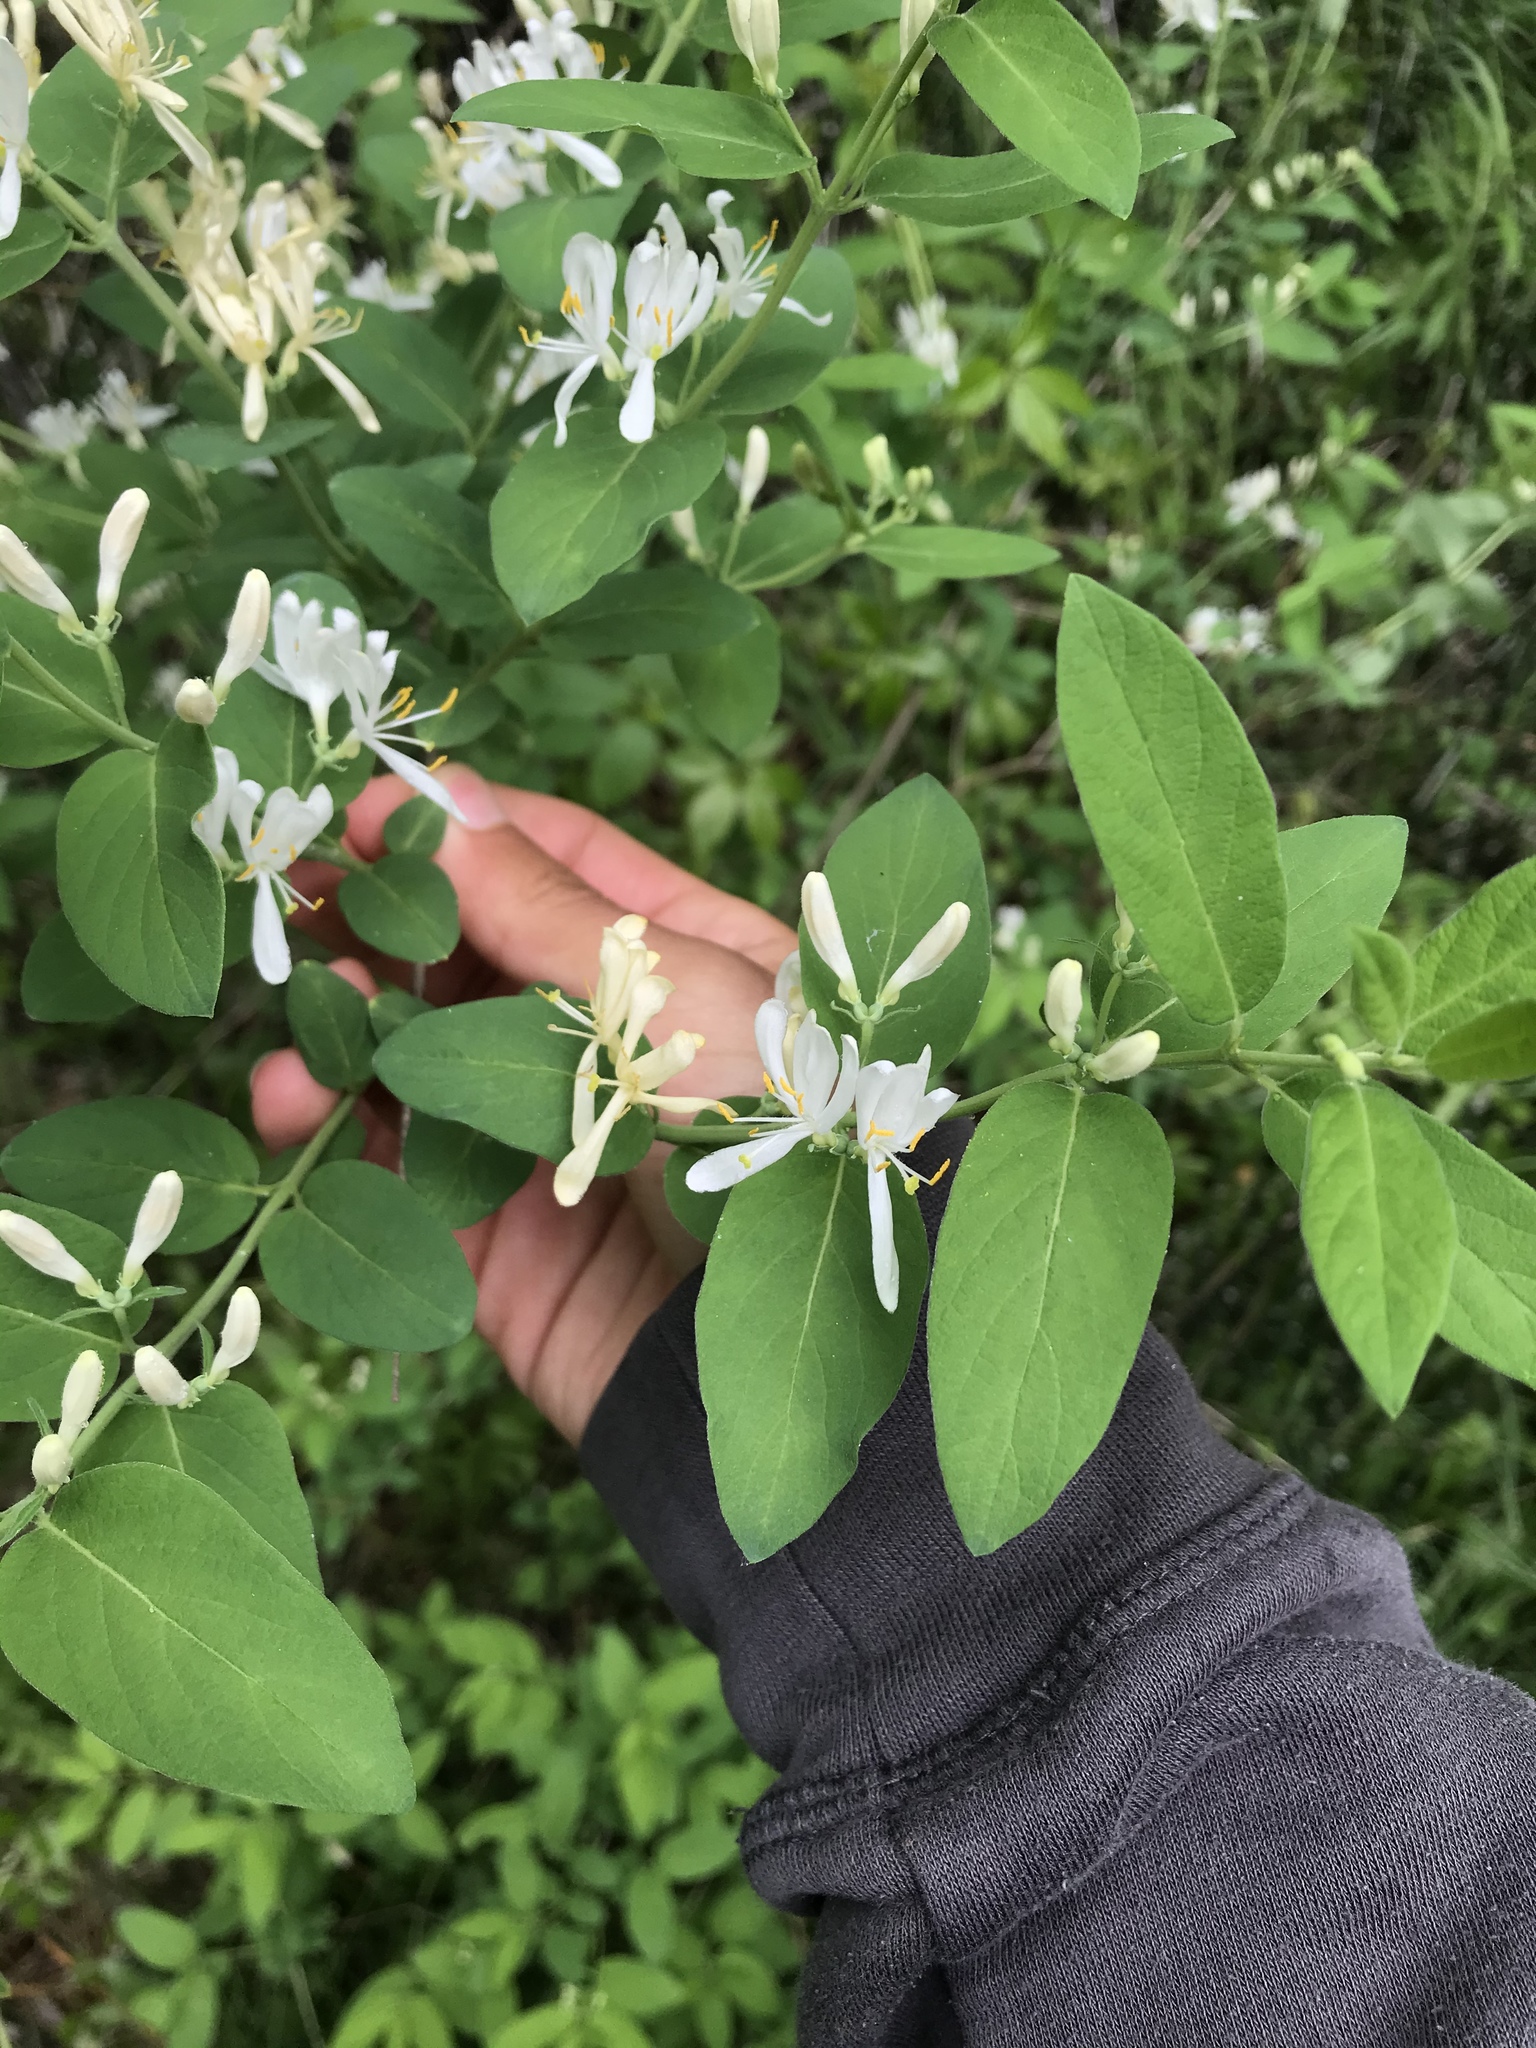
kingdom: Plantae
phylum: Tracheophyta
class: Magnoliopsida
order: Dipsacales
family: Caprifoliaceae
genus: Lonicera
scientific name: Lonicera morrowii
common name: Morrow's honeysuckle
